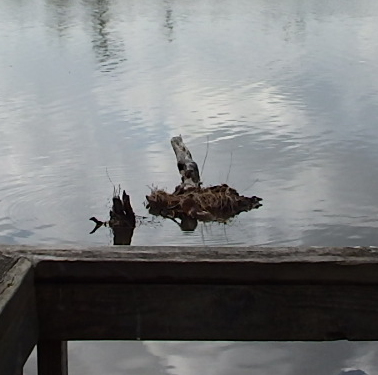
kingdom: Animalia
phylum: Chordata
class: Mammalia
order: Rodentia
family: Cricetidae
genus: Ondatra
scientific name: Ondatra zibethicus
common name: Muskrat
